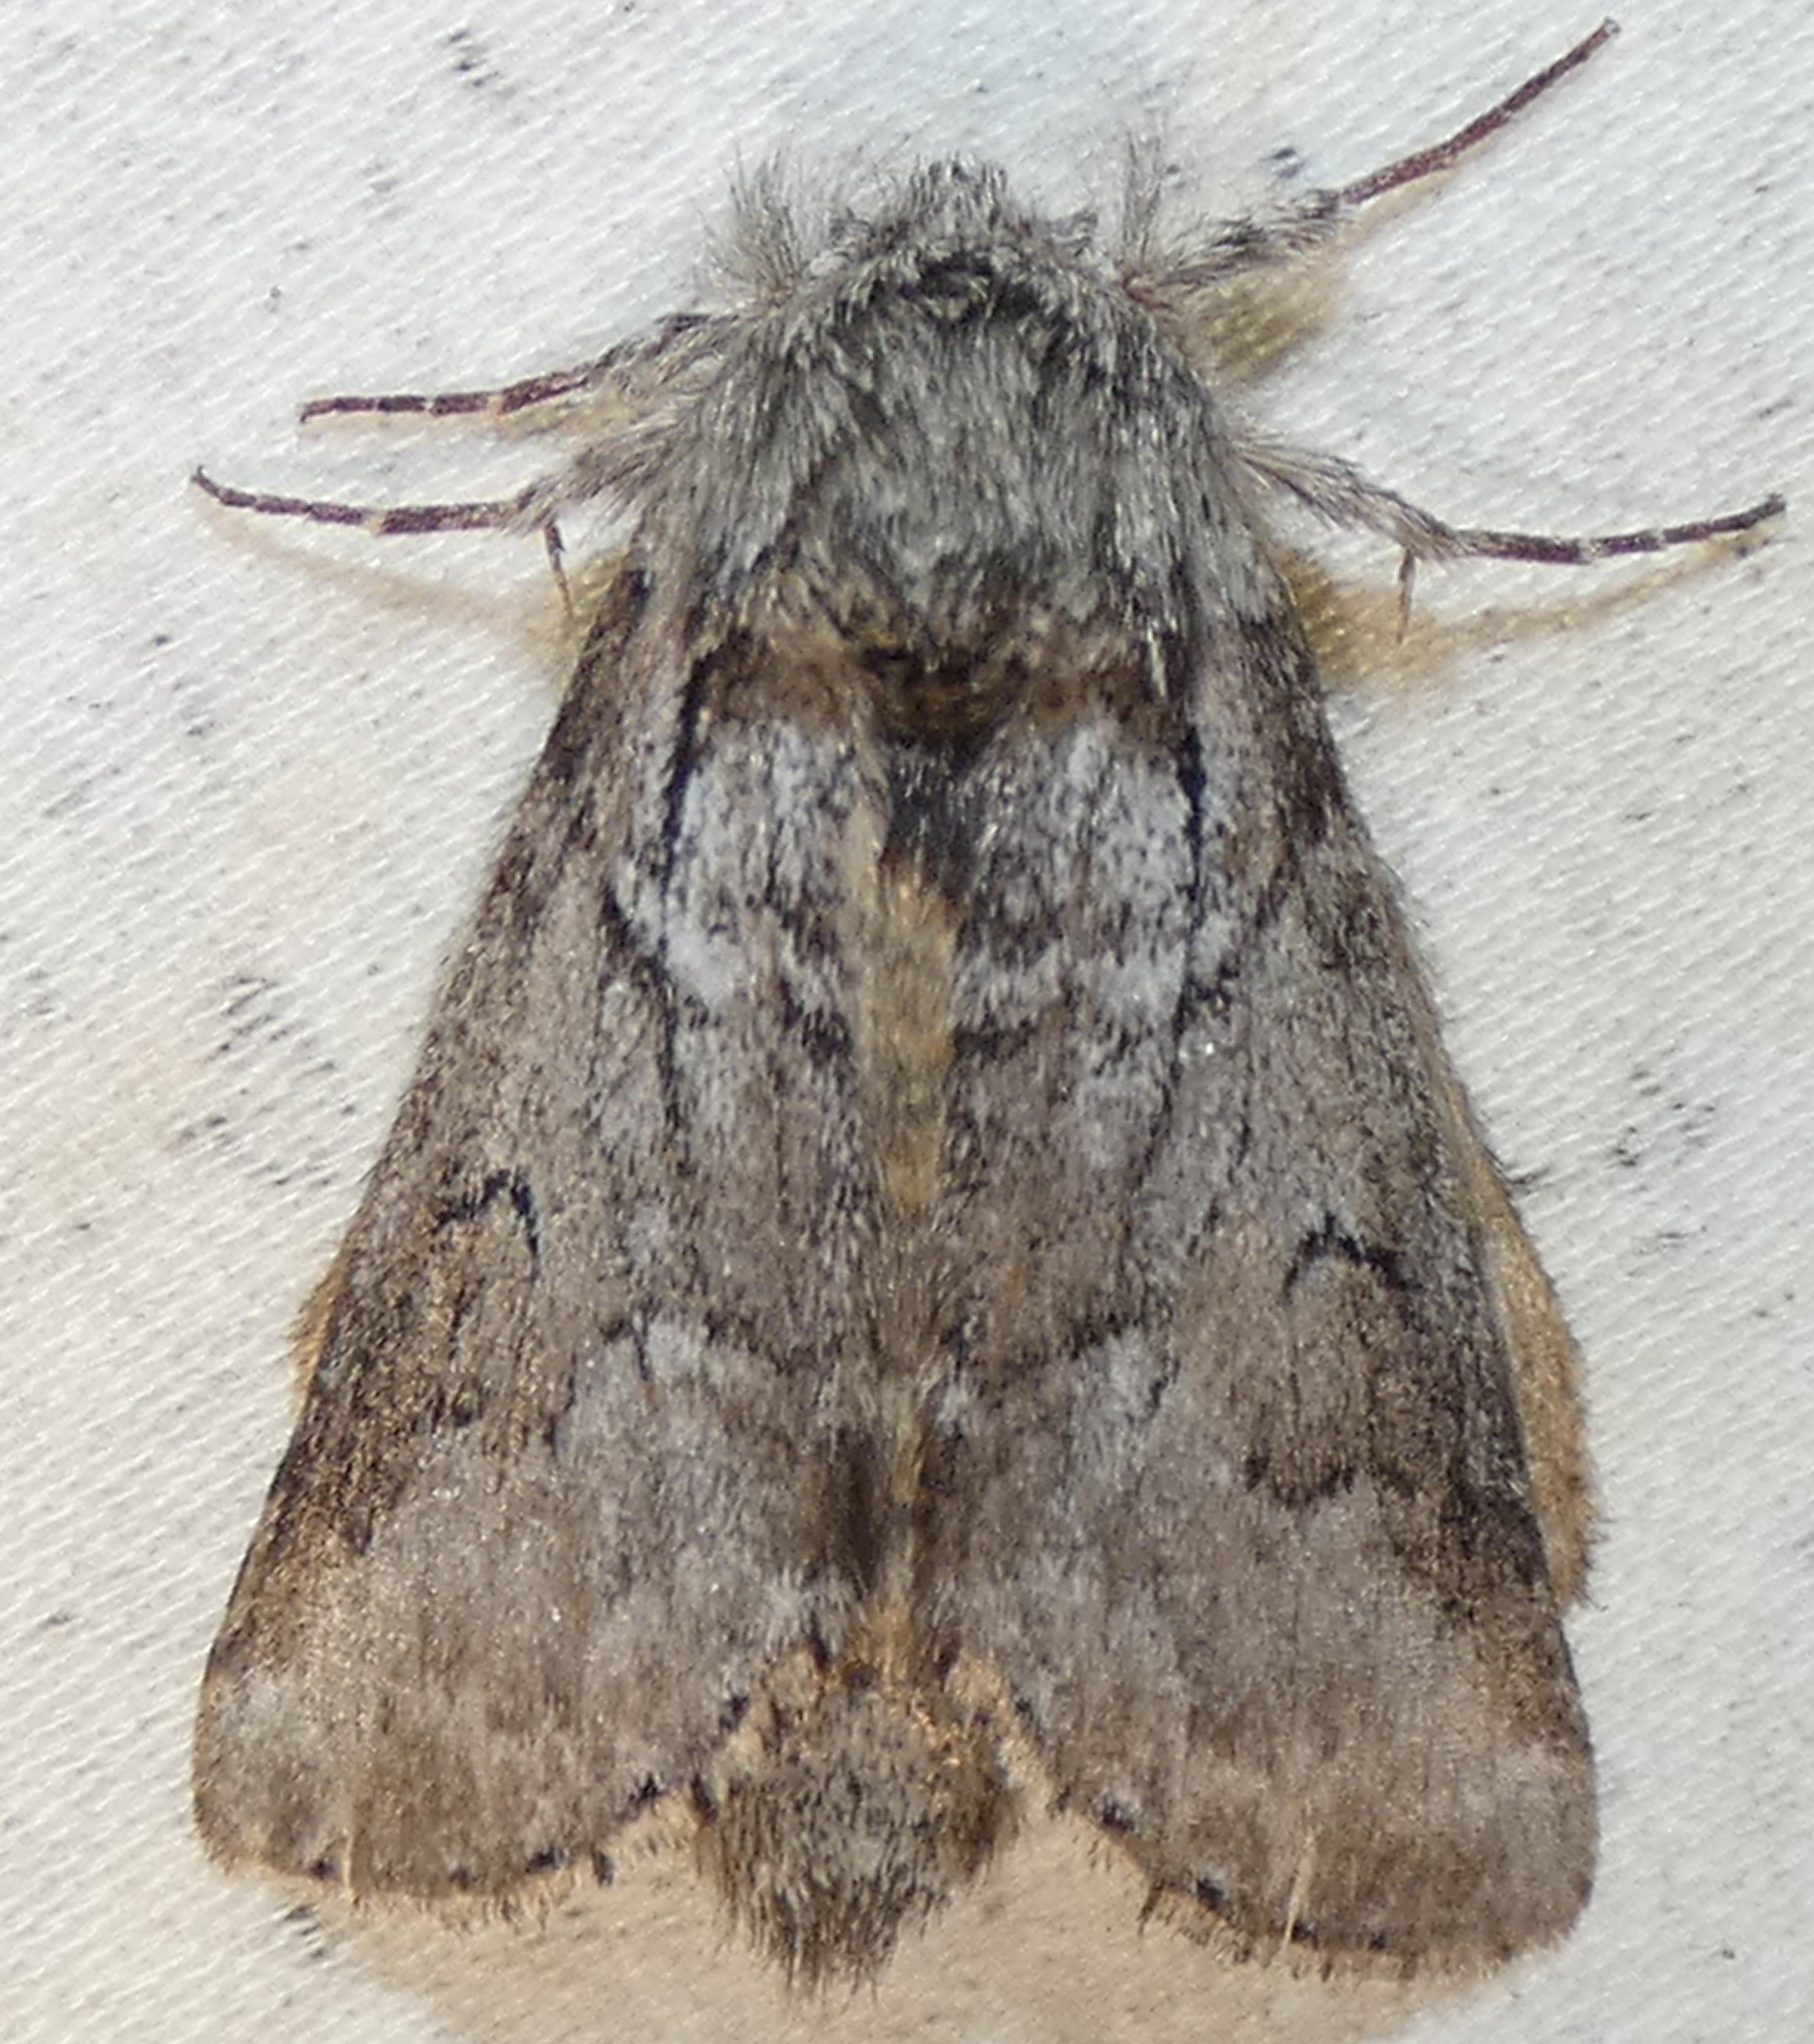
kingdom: Animalia
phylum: Arthropoda
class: Insecta
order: Lepidoptera
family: Notodontidae
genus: Lochmaeus
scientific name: Lochmaeus bilineata
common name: Double-lined prominent
